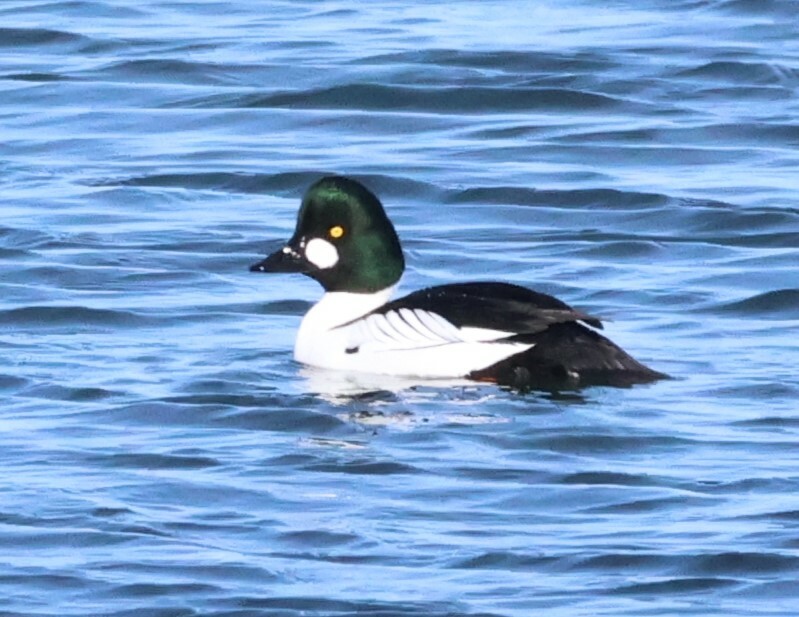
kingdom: Animalia
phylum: Chordata
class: Aves
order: Anseriformes
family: Anatidae
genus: Bucephala
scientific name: Bucephala clangula
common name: Common goldeneye
